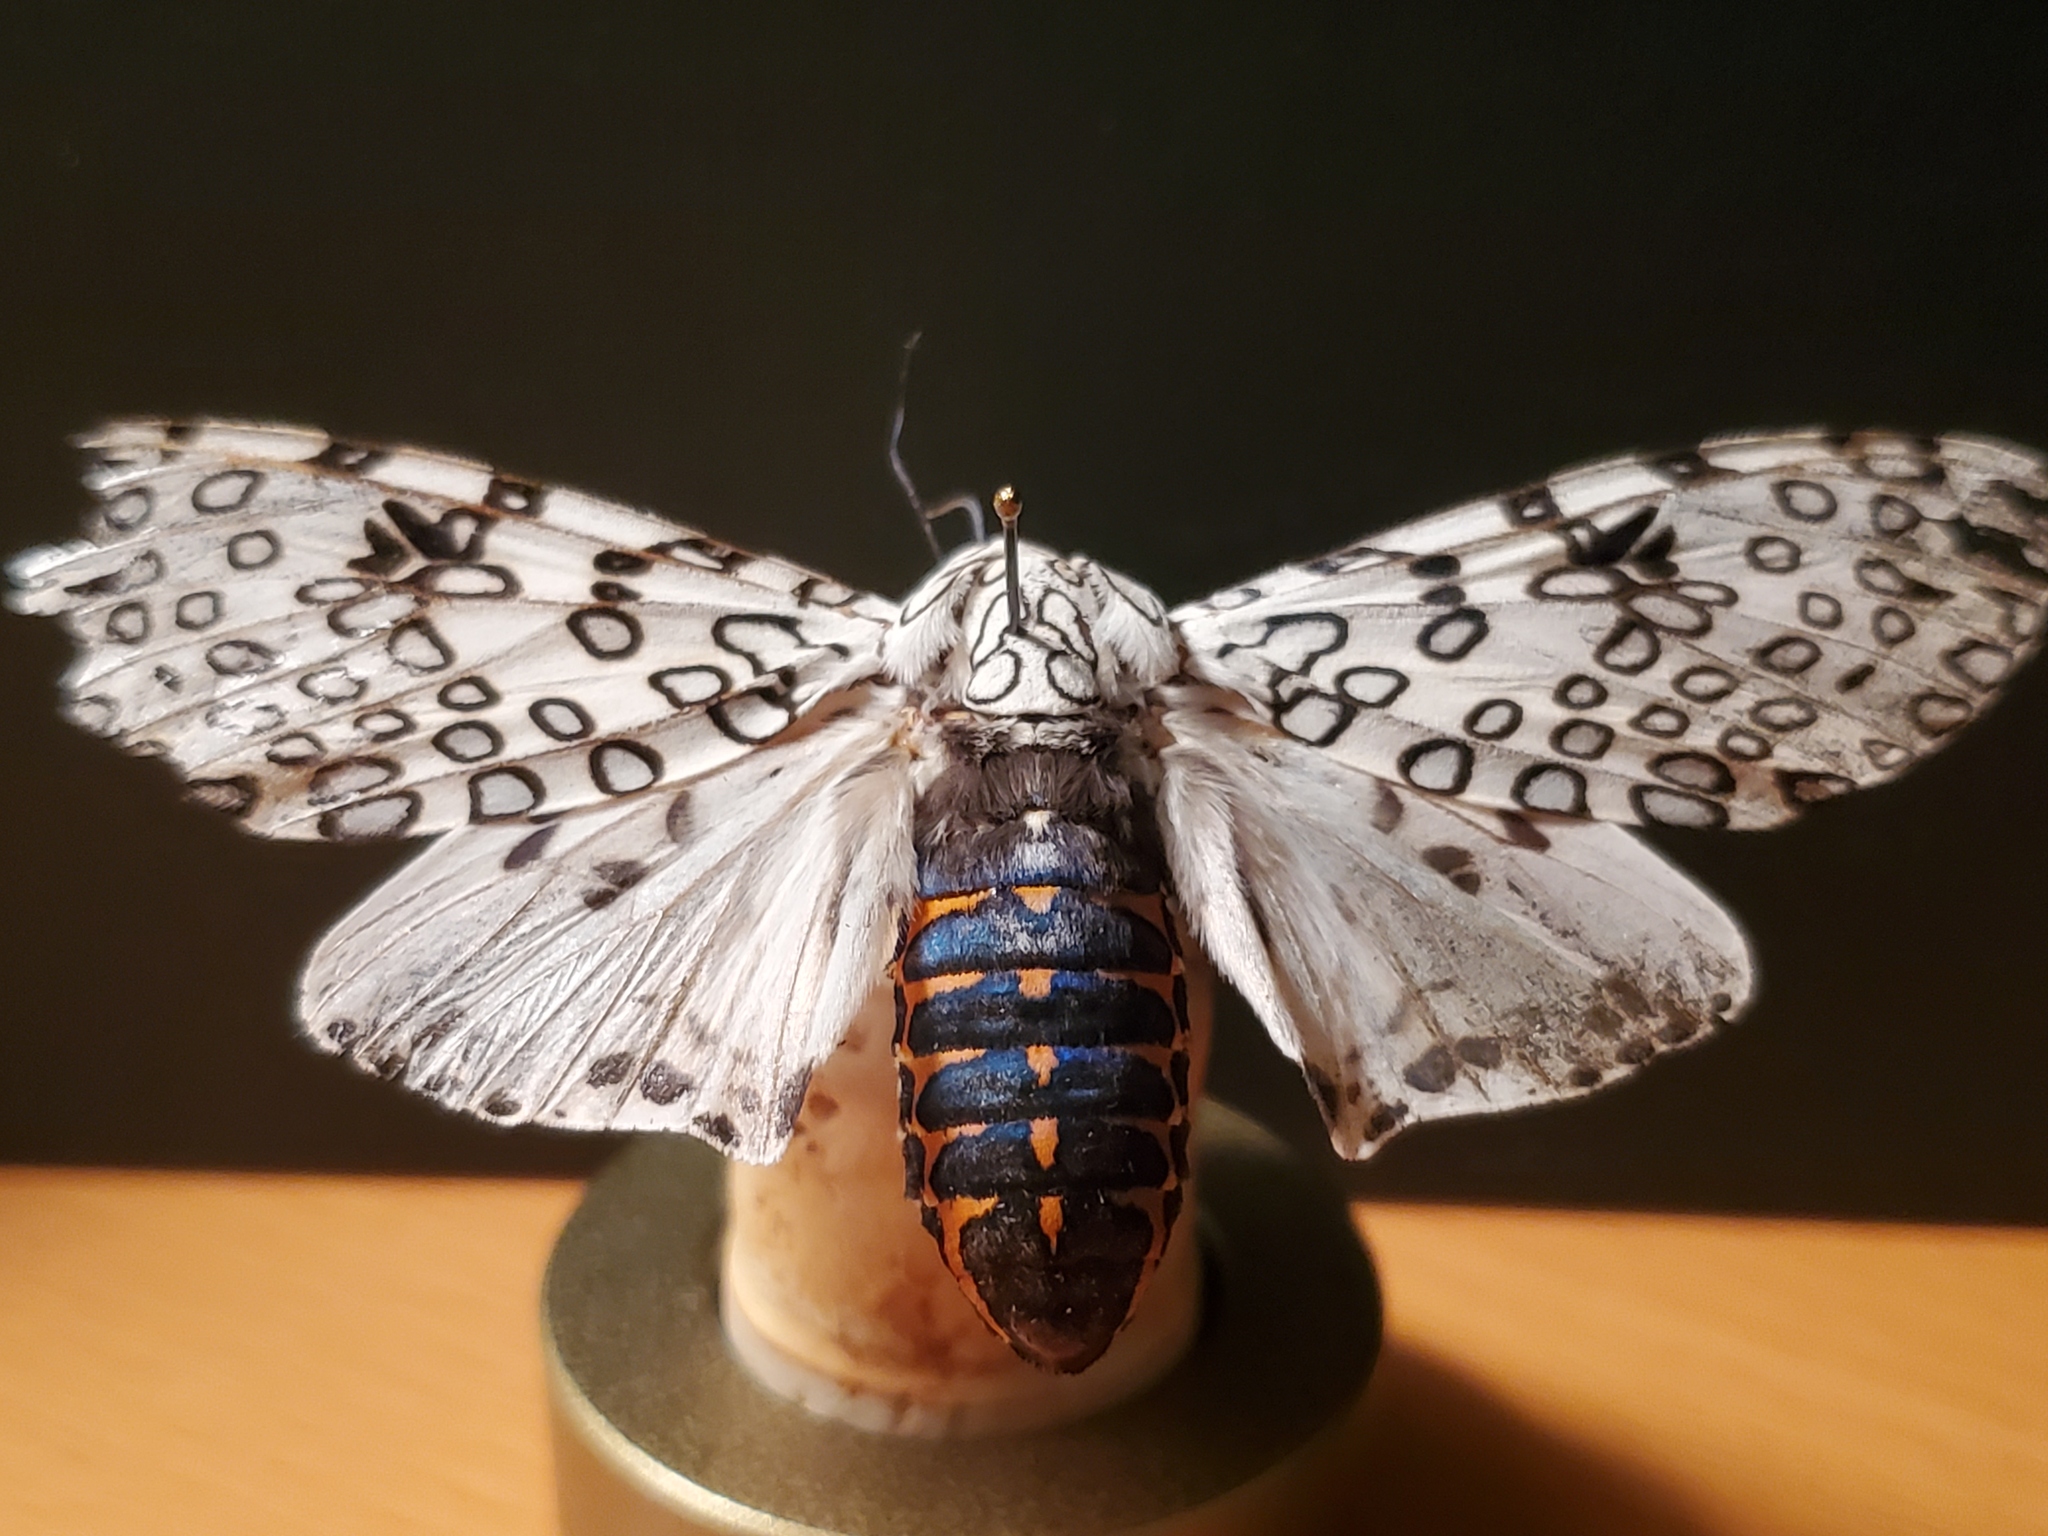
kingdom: Animalia
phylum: Arthropoda
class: Insecta
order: Lepidoptera
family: Erebidae
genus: Hypercompe
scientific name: Hypercompe scribonia
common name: Giant leopard moth
